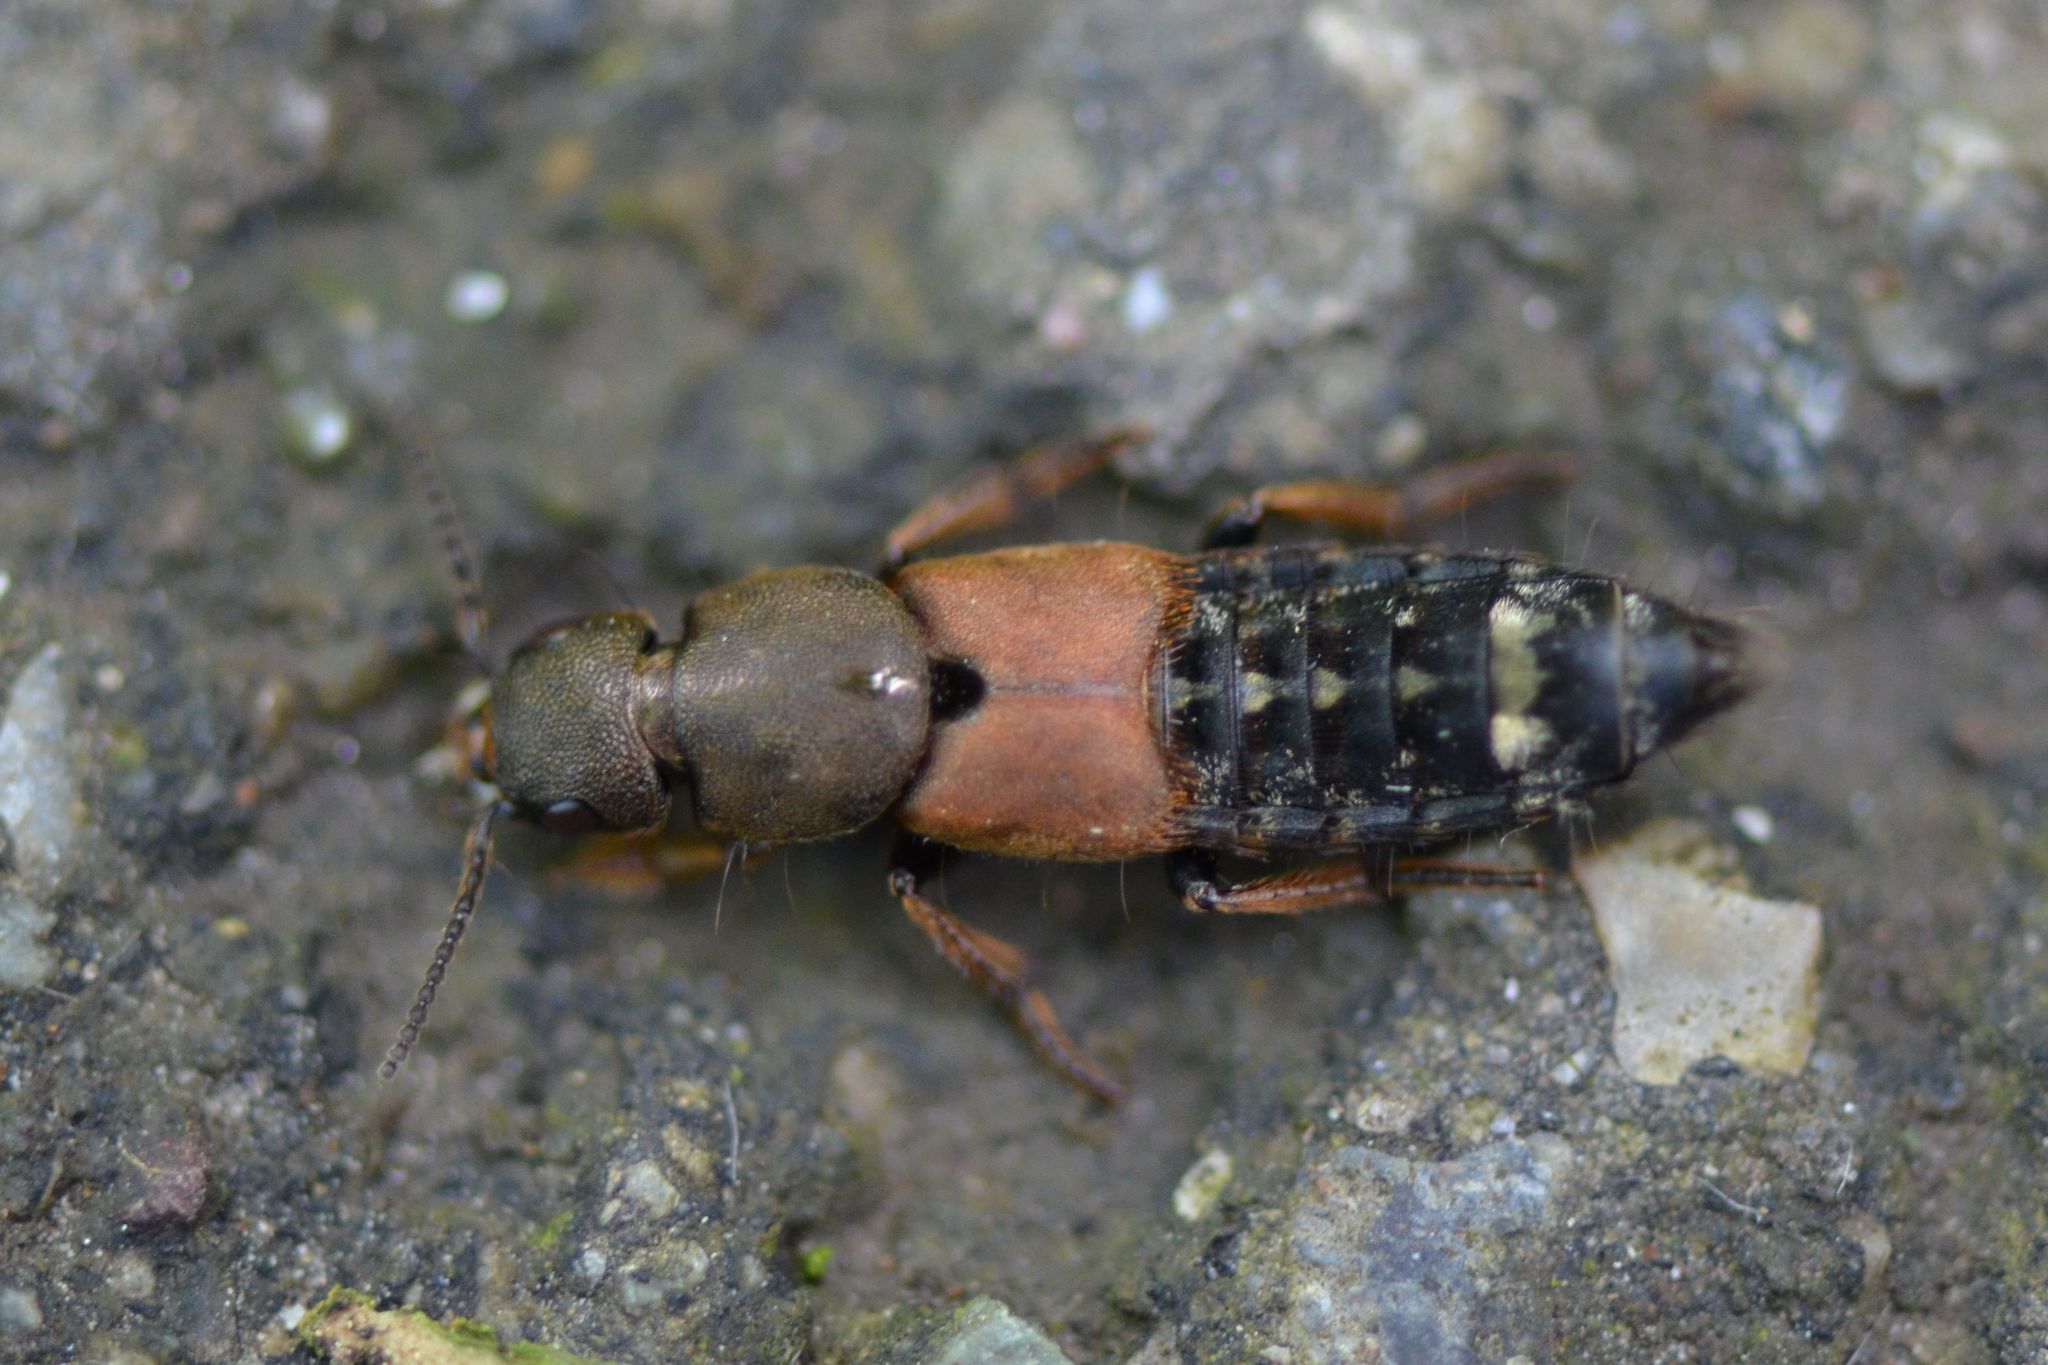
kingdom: Animalia
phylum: Arthropoda
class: Insecta
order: Coleoptera
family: Staphylinidae
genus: Platydracus
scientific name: Platydracus chalcocephalus
